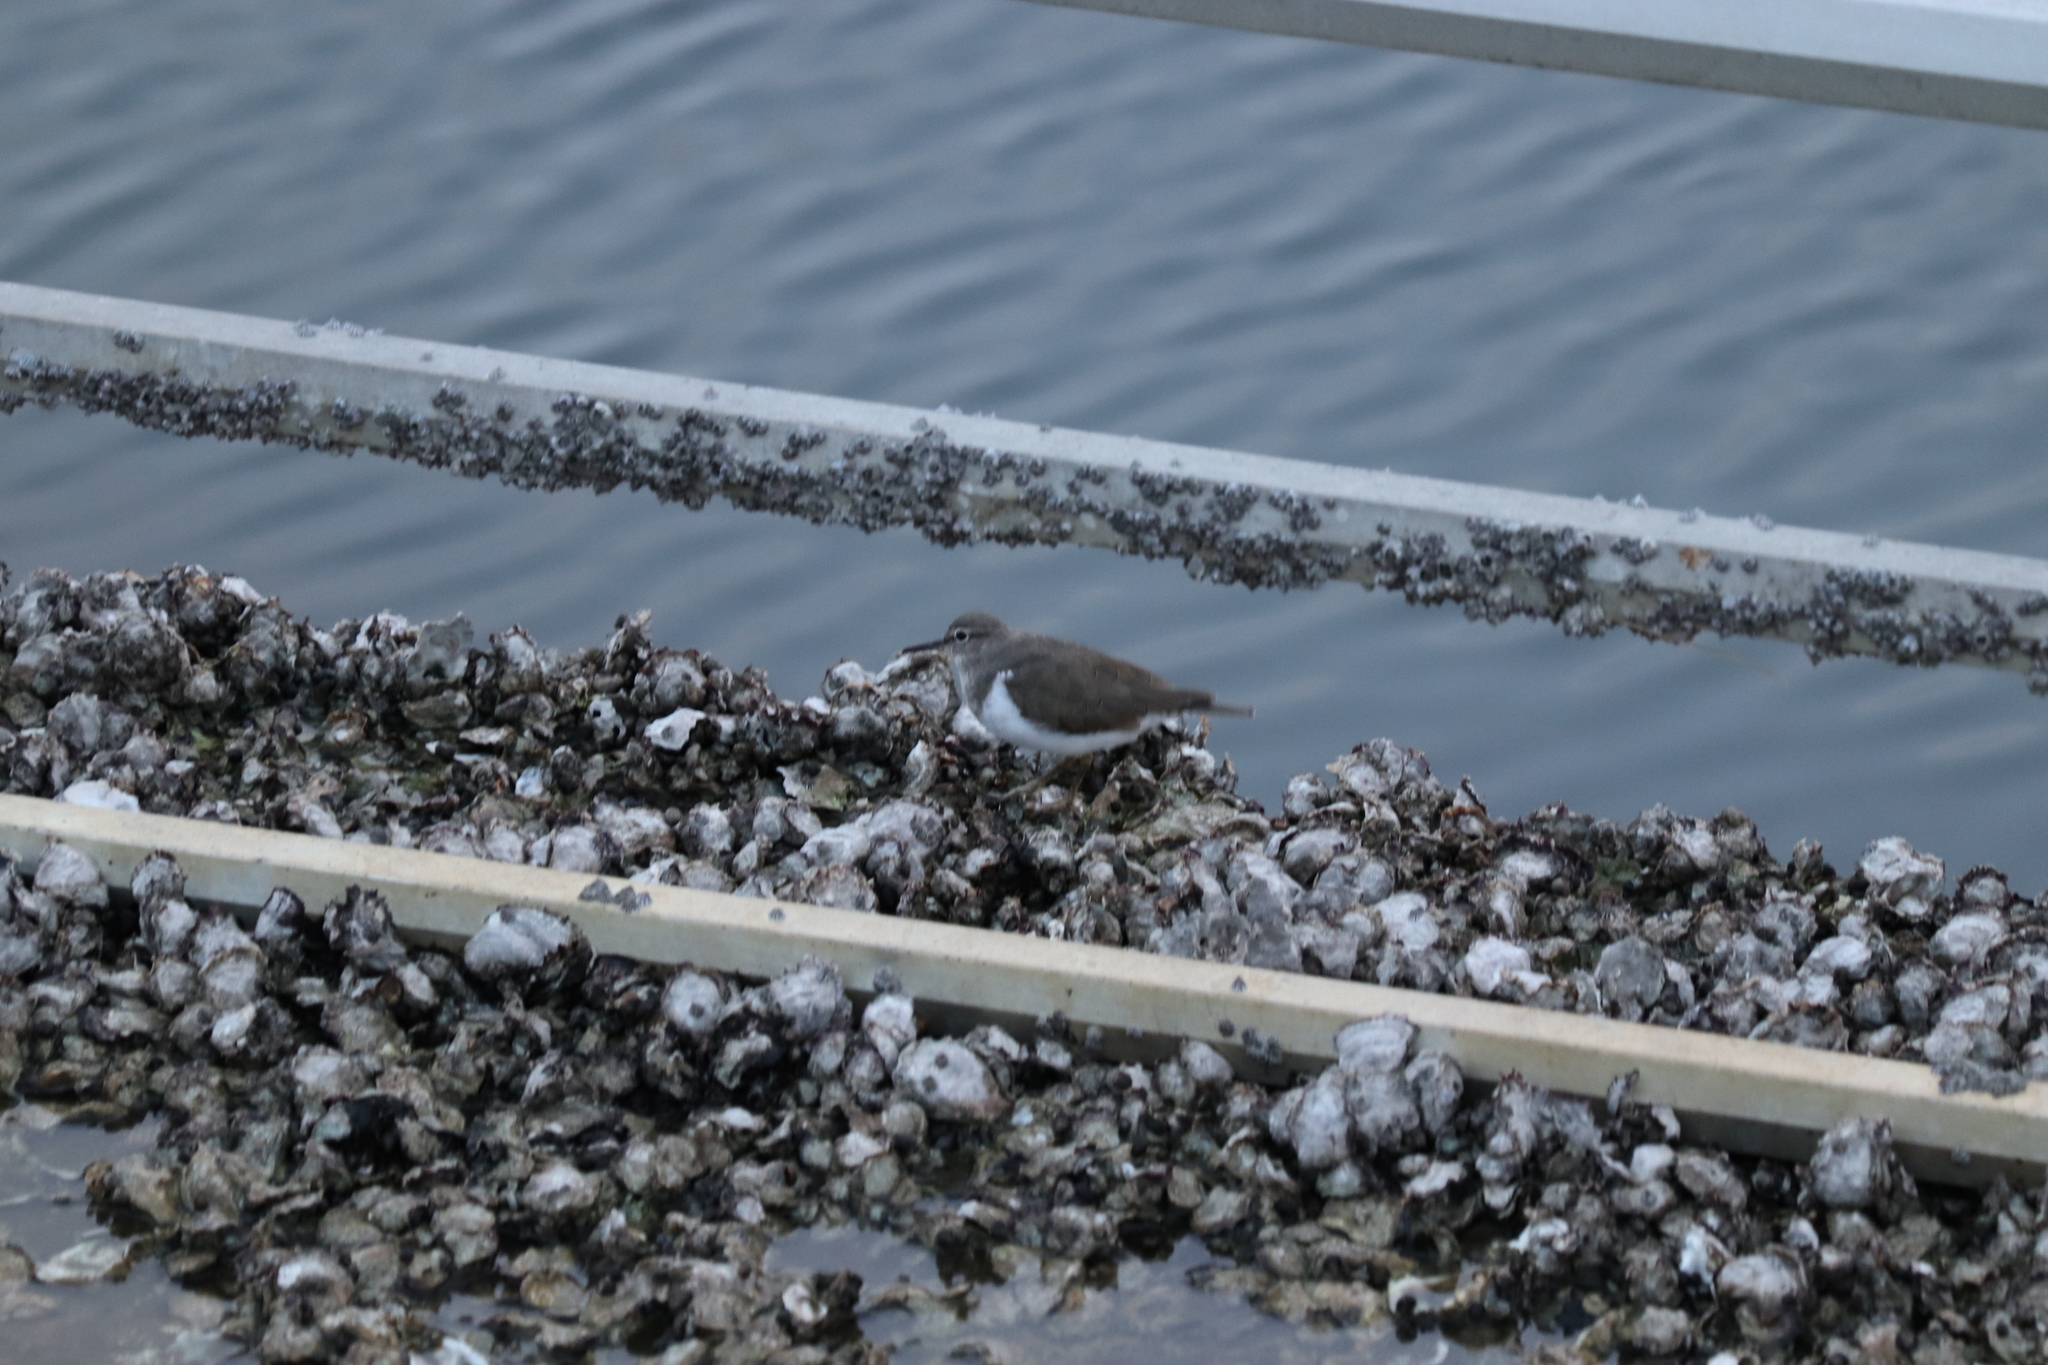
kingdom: Animalia
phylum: Chordata
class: Aves
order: Charadriiformes
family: Scolopacidae
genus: Actitis
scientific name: Actitis hypoleucos
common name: Common sandpiper
